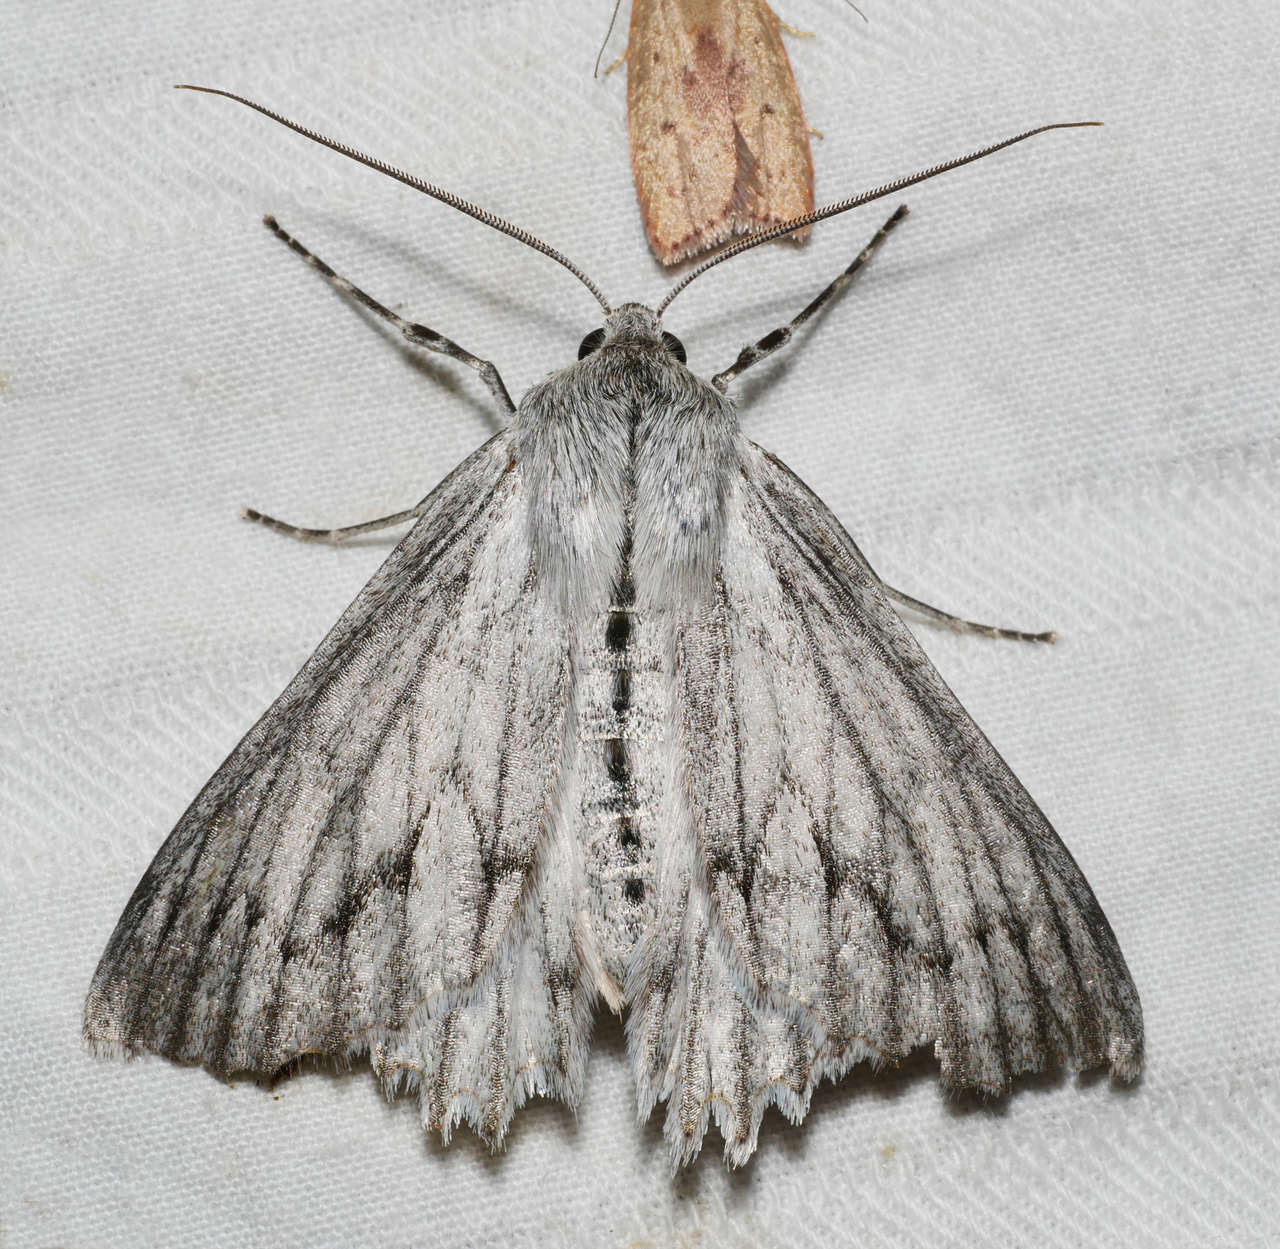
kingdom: Animalia
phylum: Arthropoda
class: Insecta
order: Lepidoptera
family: Geometridae
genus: Paraterpna
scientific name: Paraterpna harrisoni
